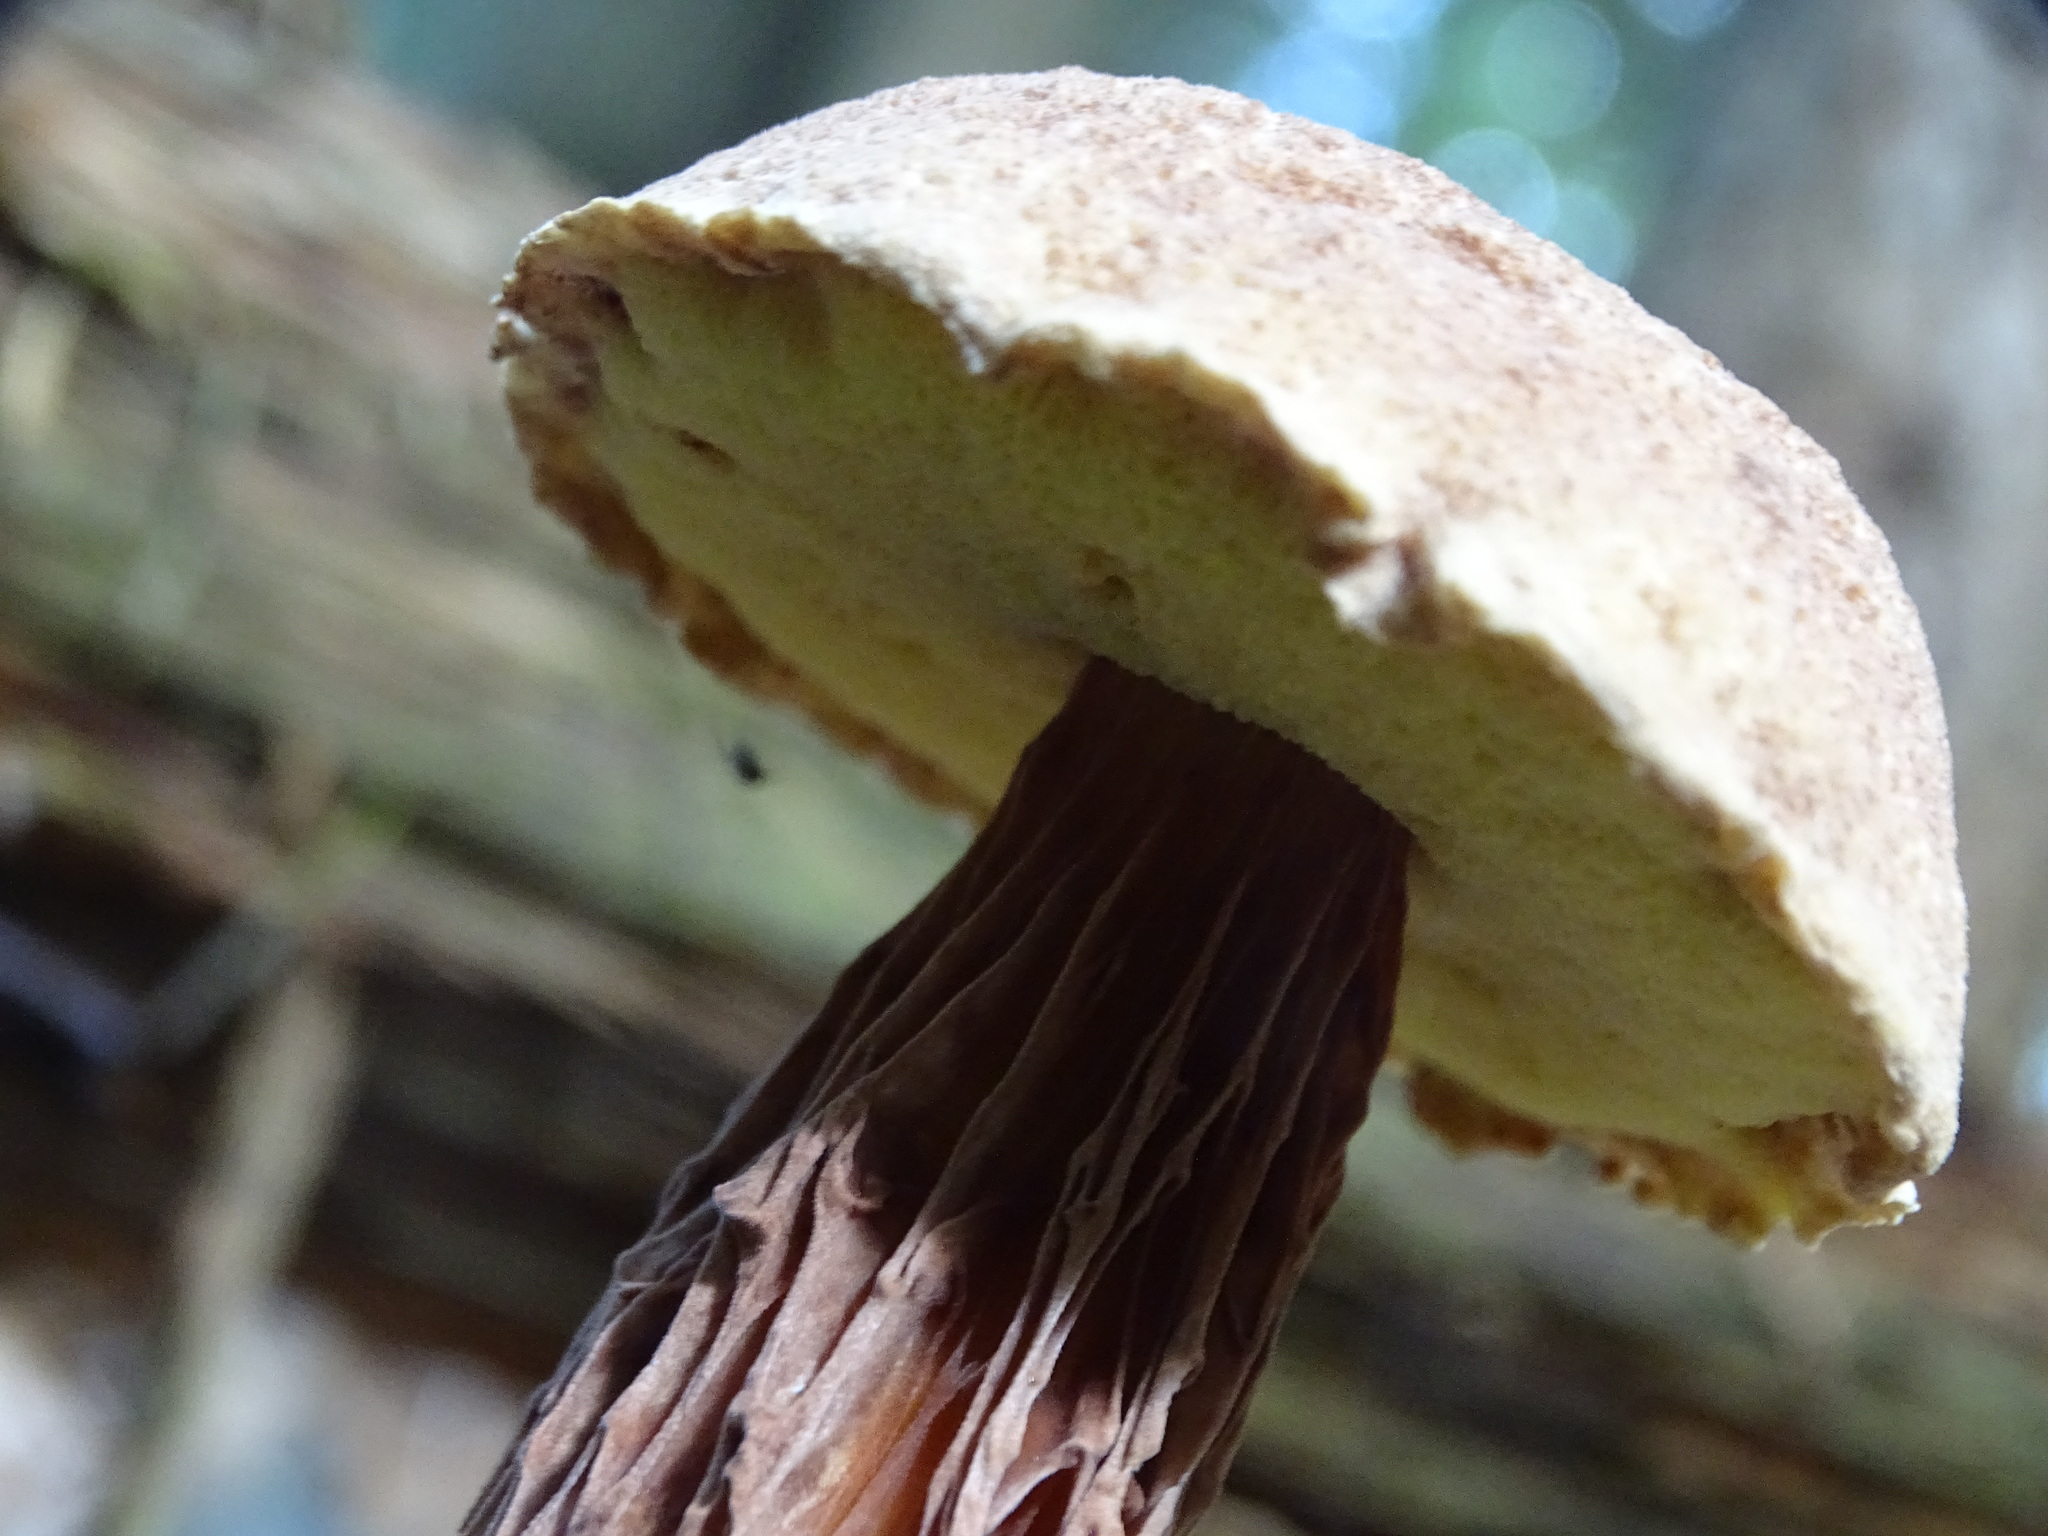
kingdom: Fungi
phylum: Basidiomycota
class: Agaricomycetes
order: Boletales
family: Boletaceae
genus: Aureoboletus
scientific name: Aureoboletus russellii
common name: Russell's bolete
